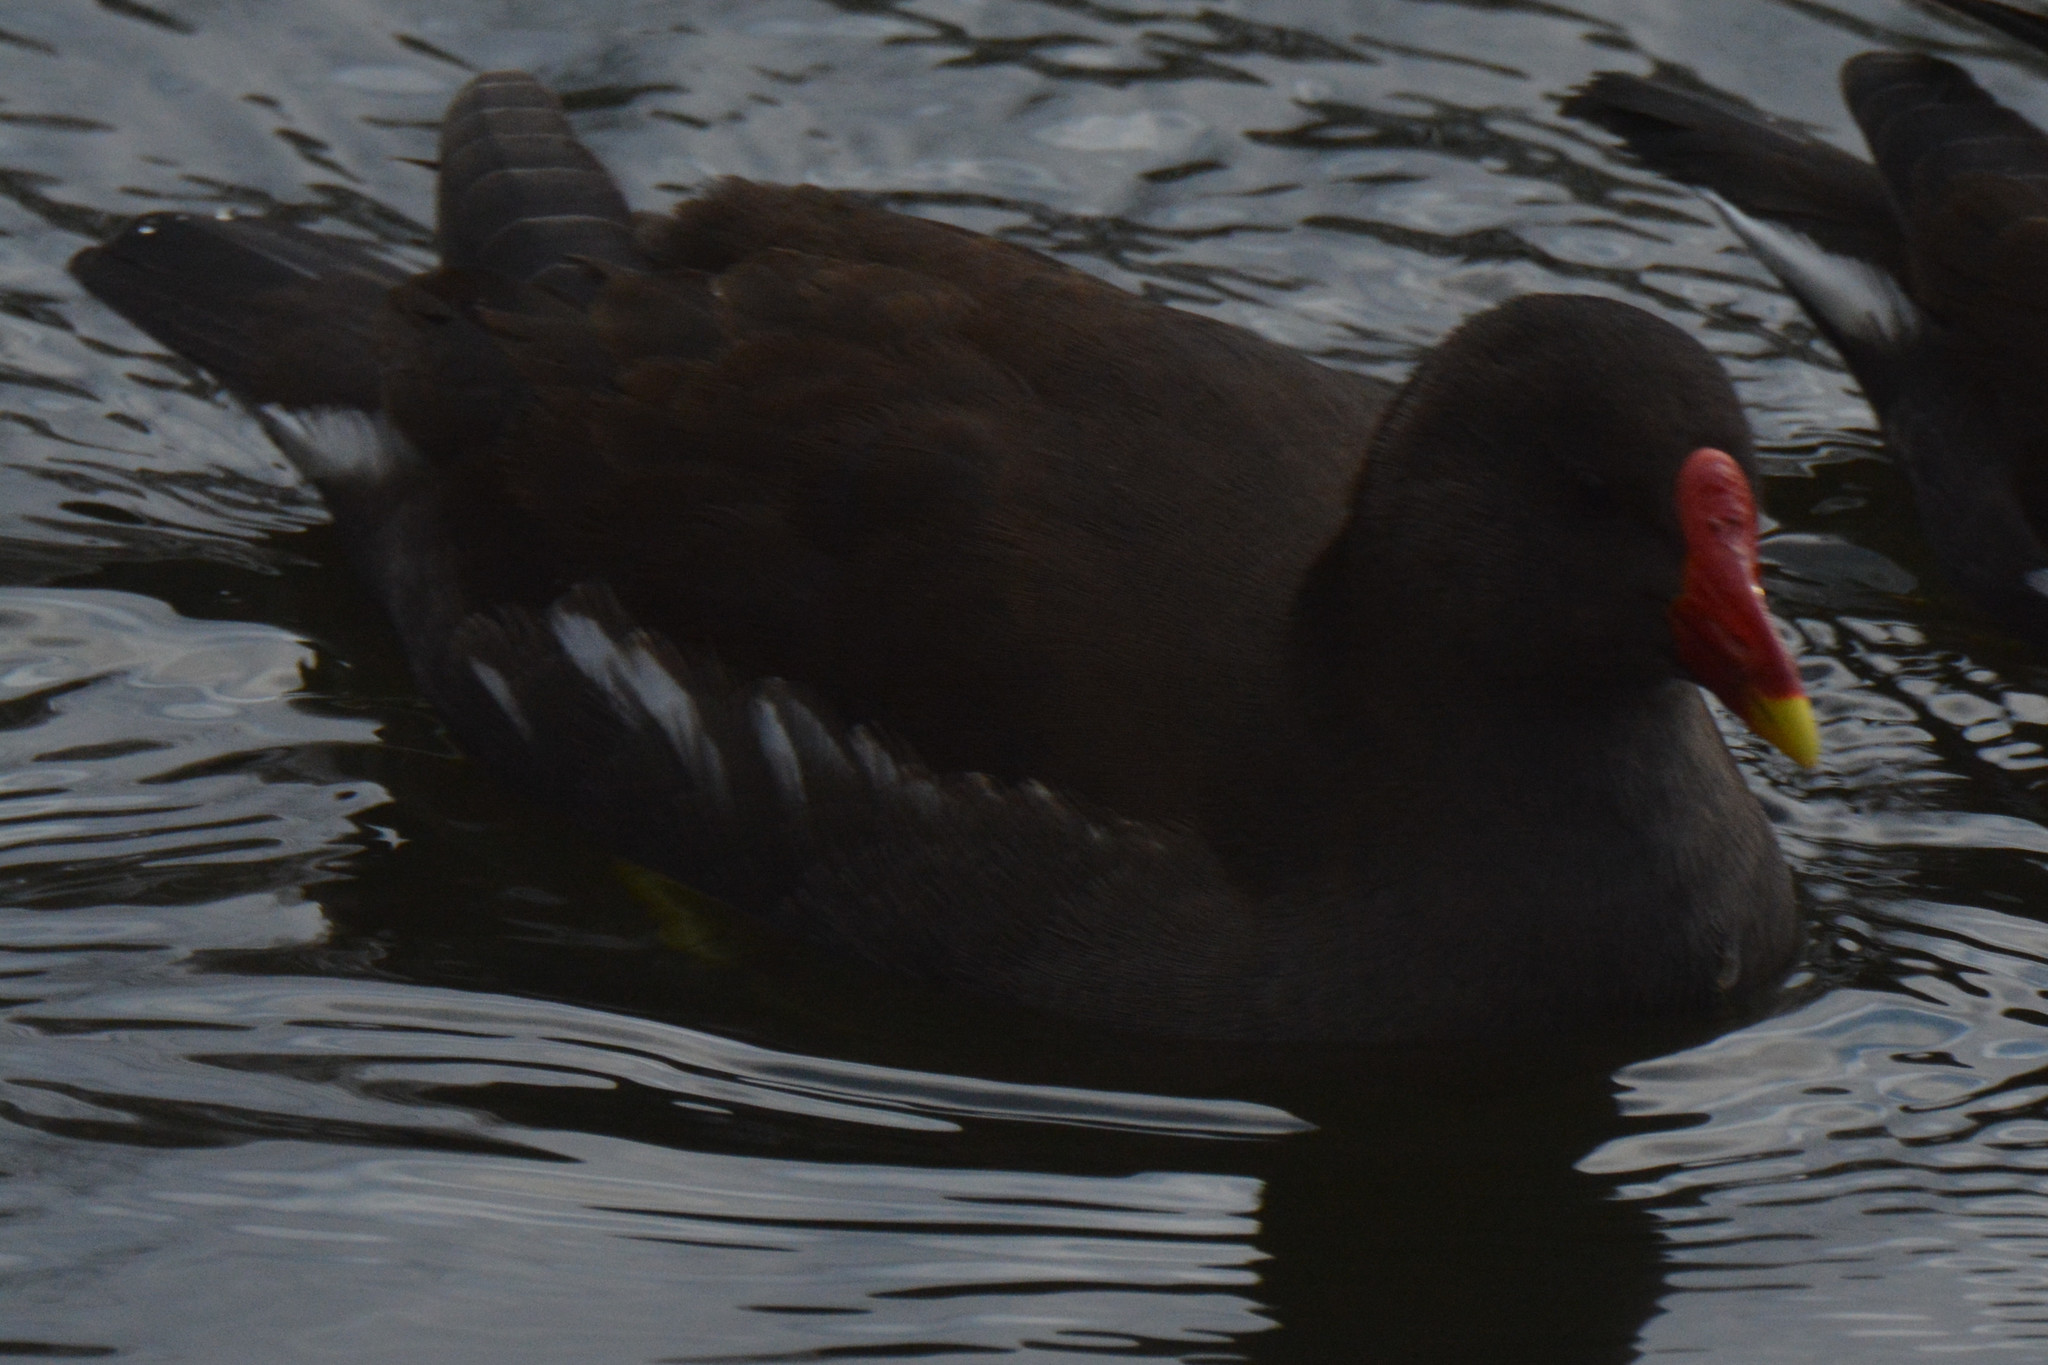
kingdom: Animalia
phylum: Chordata
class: Aves
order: Gruiformes
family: Rallidae
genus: Gallinula
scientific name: Gallinula chloropus
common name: Common moorhen
